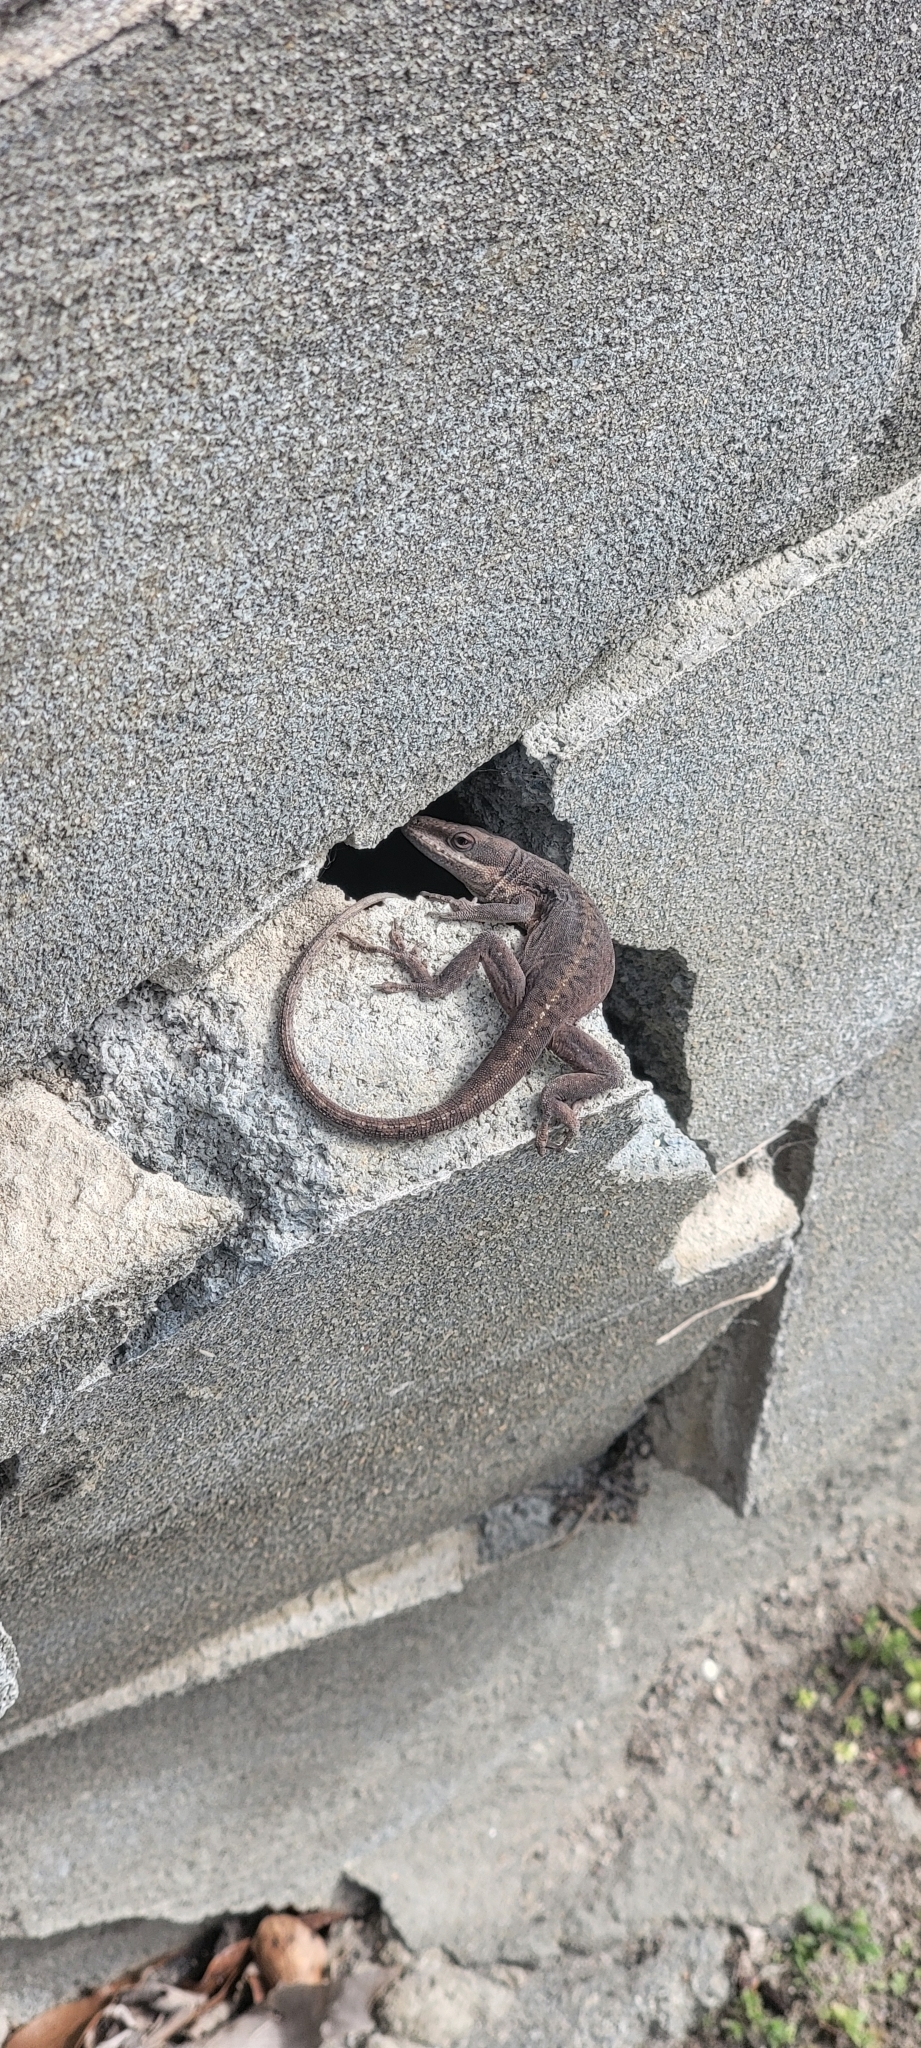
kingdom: Animalia
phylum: Chordata
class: Squamata
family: Dactyloidae
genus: Anolis
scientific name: Anolis carolinensis
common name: Green anole
